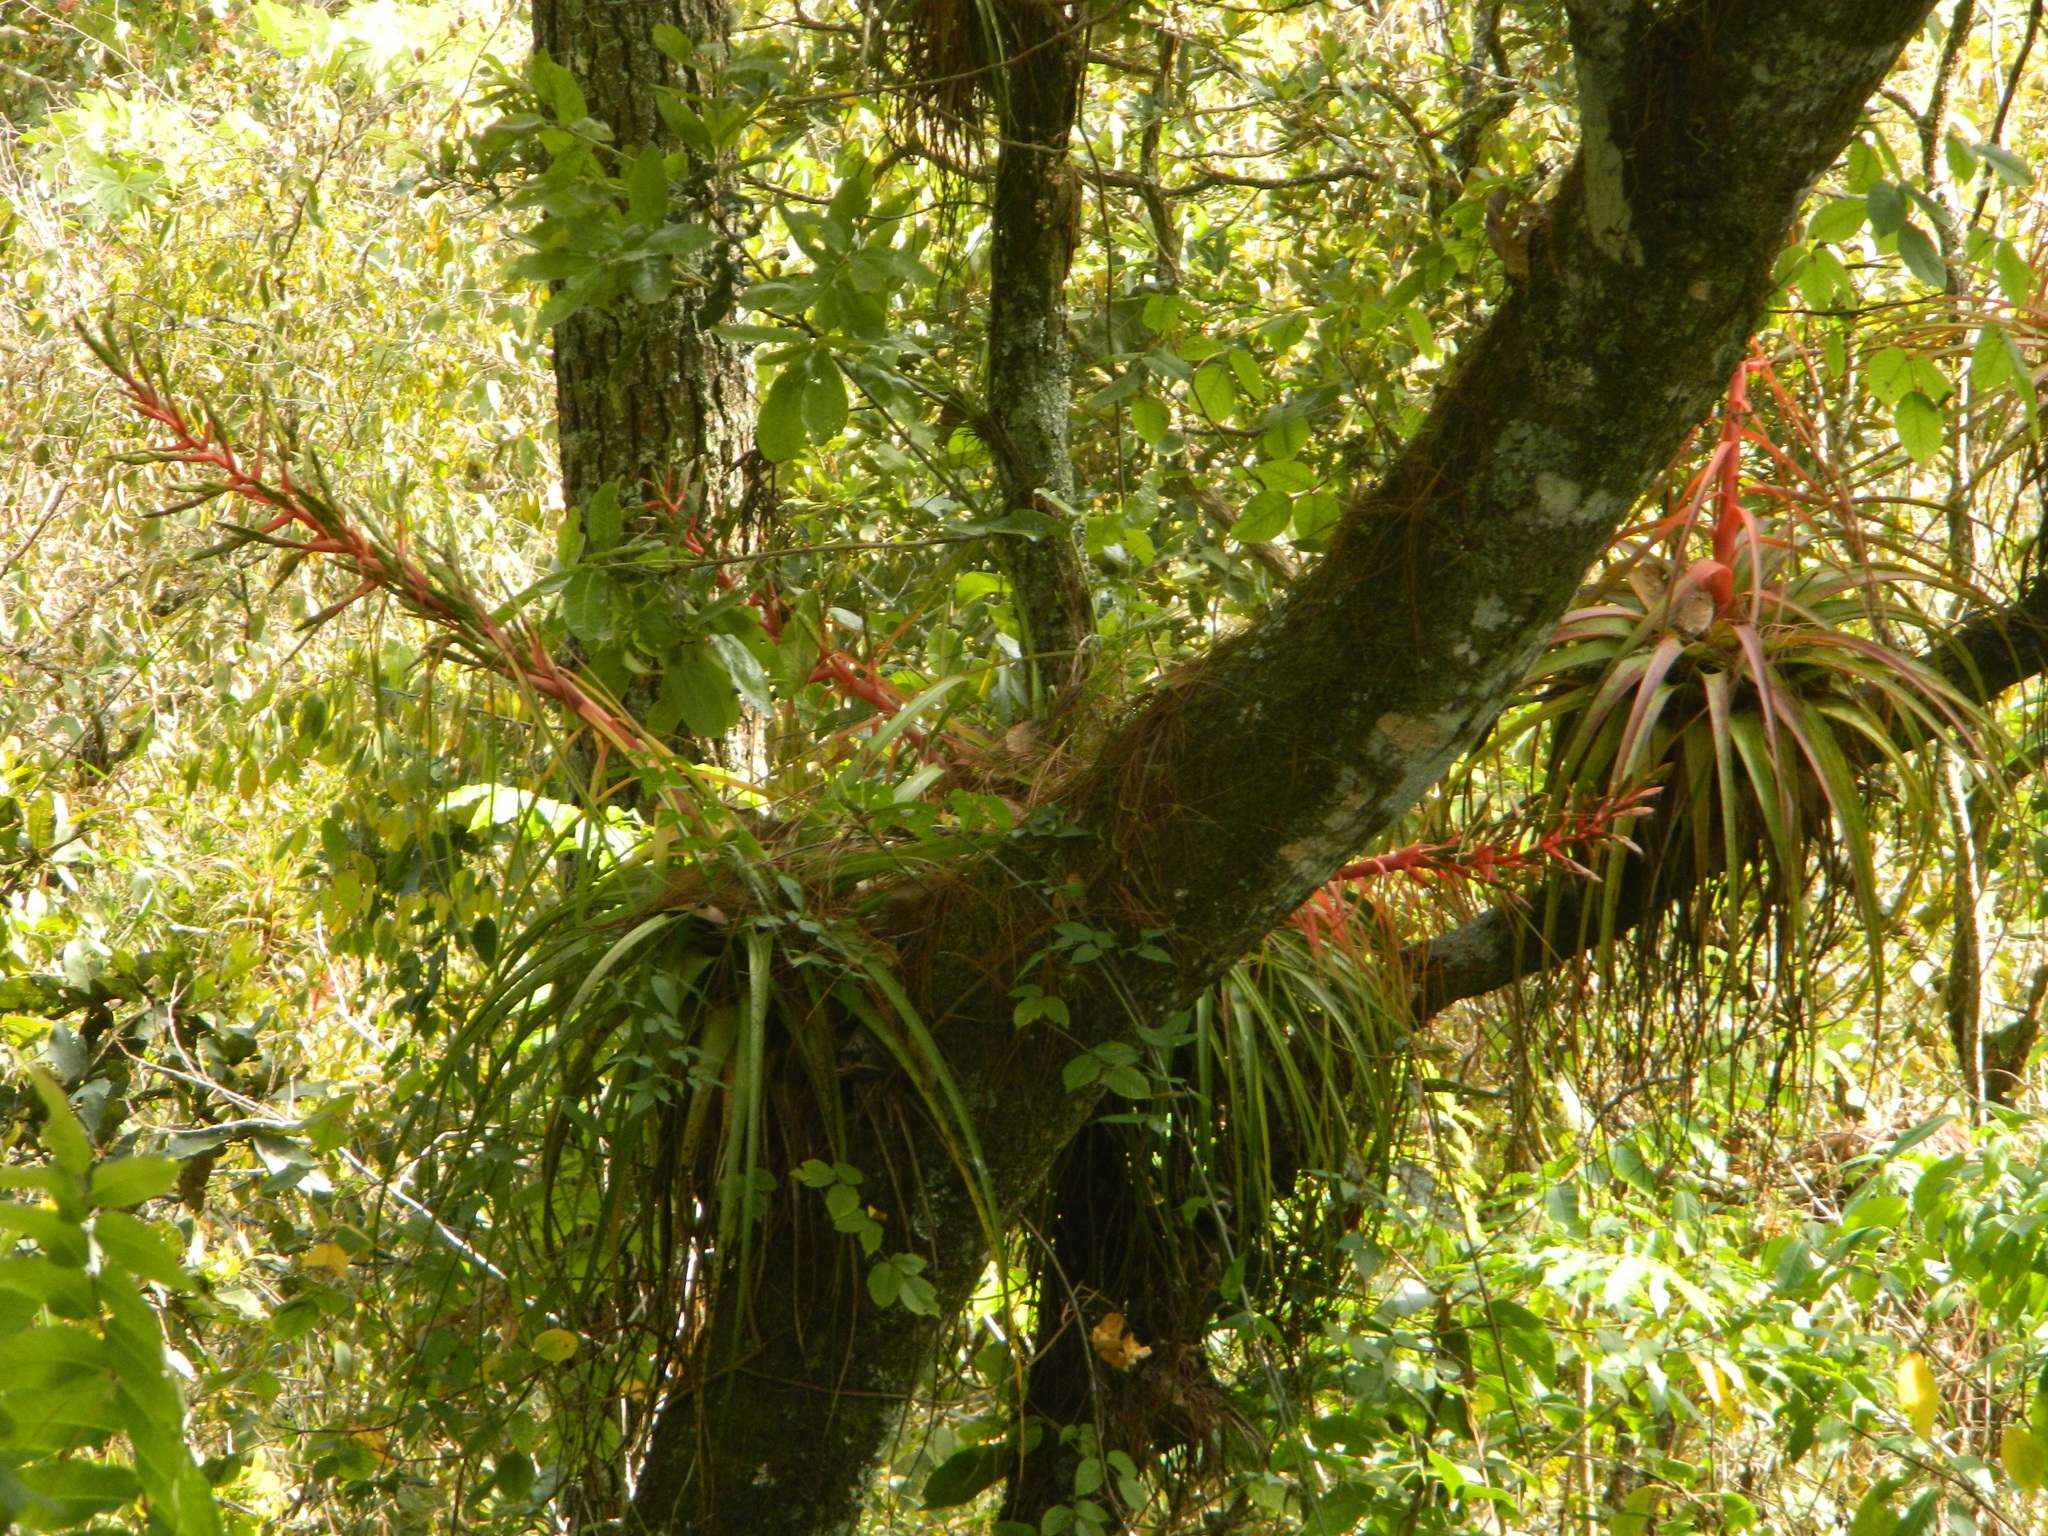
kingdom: Plantae
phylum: Tracheophyta
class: Liliopsida
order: Poales
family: Bromeliaceae
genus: Tillandsia
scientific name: Tillandsia calothyrsus
